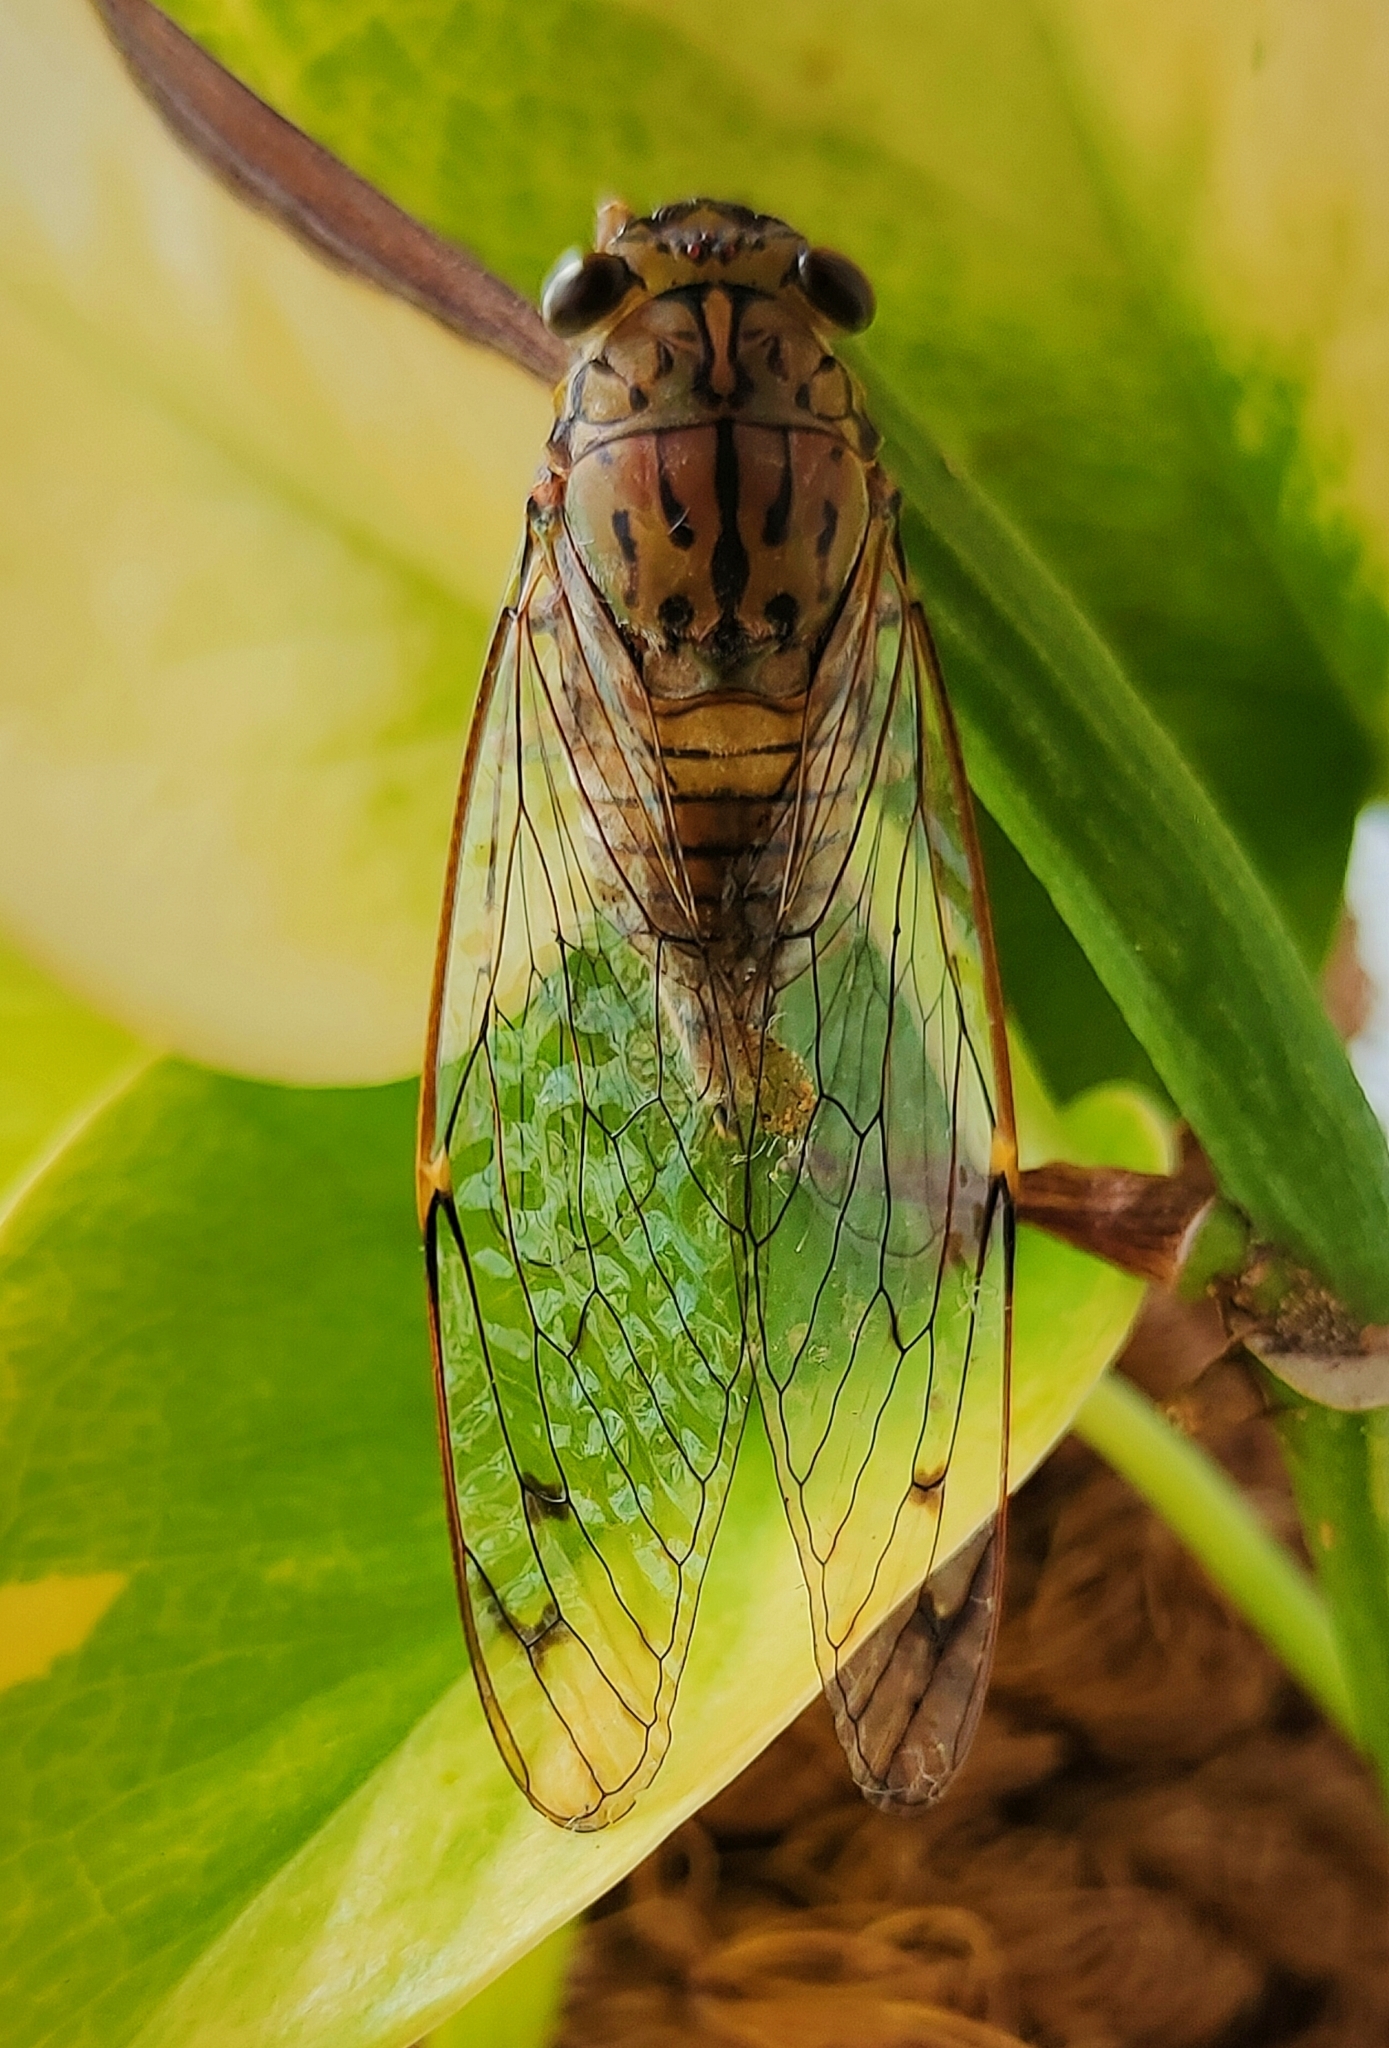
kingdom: Animalia
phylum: Arthropoda
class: Insecta
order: Hemiptera
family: Cicadidae
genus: Purana
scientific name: Purana tigrina
